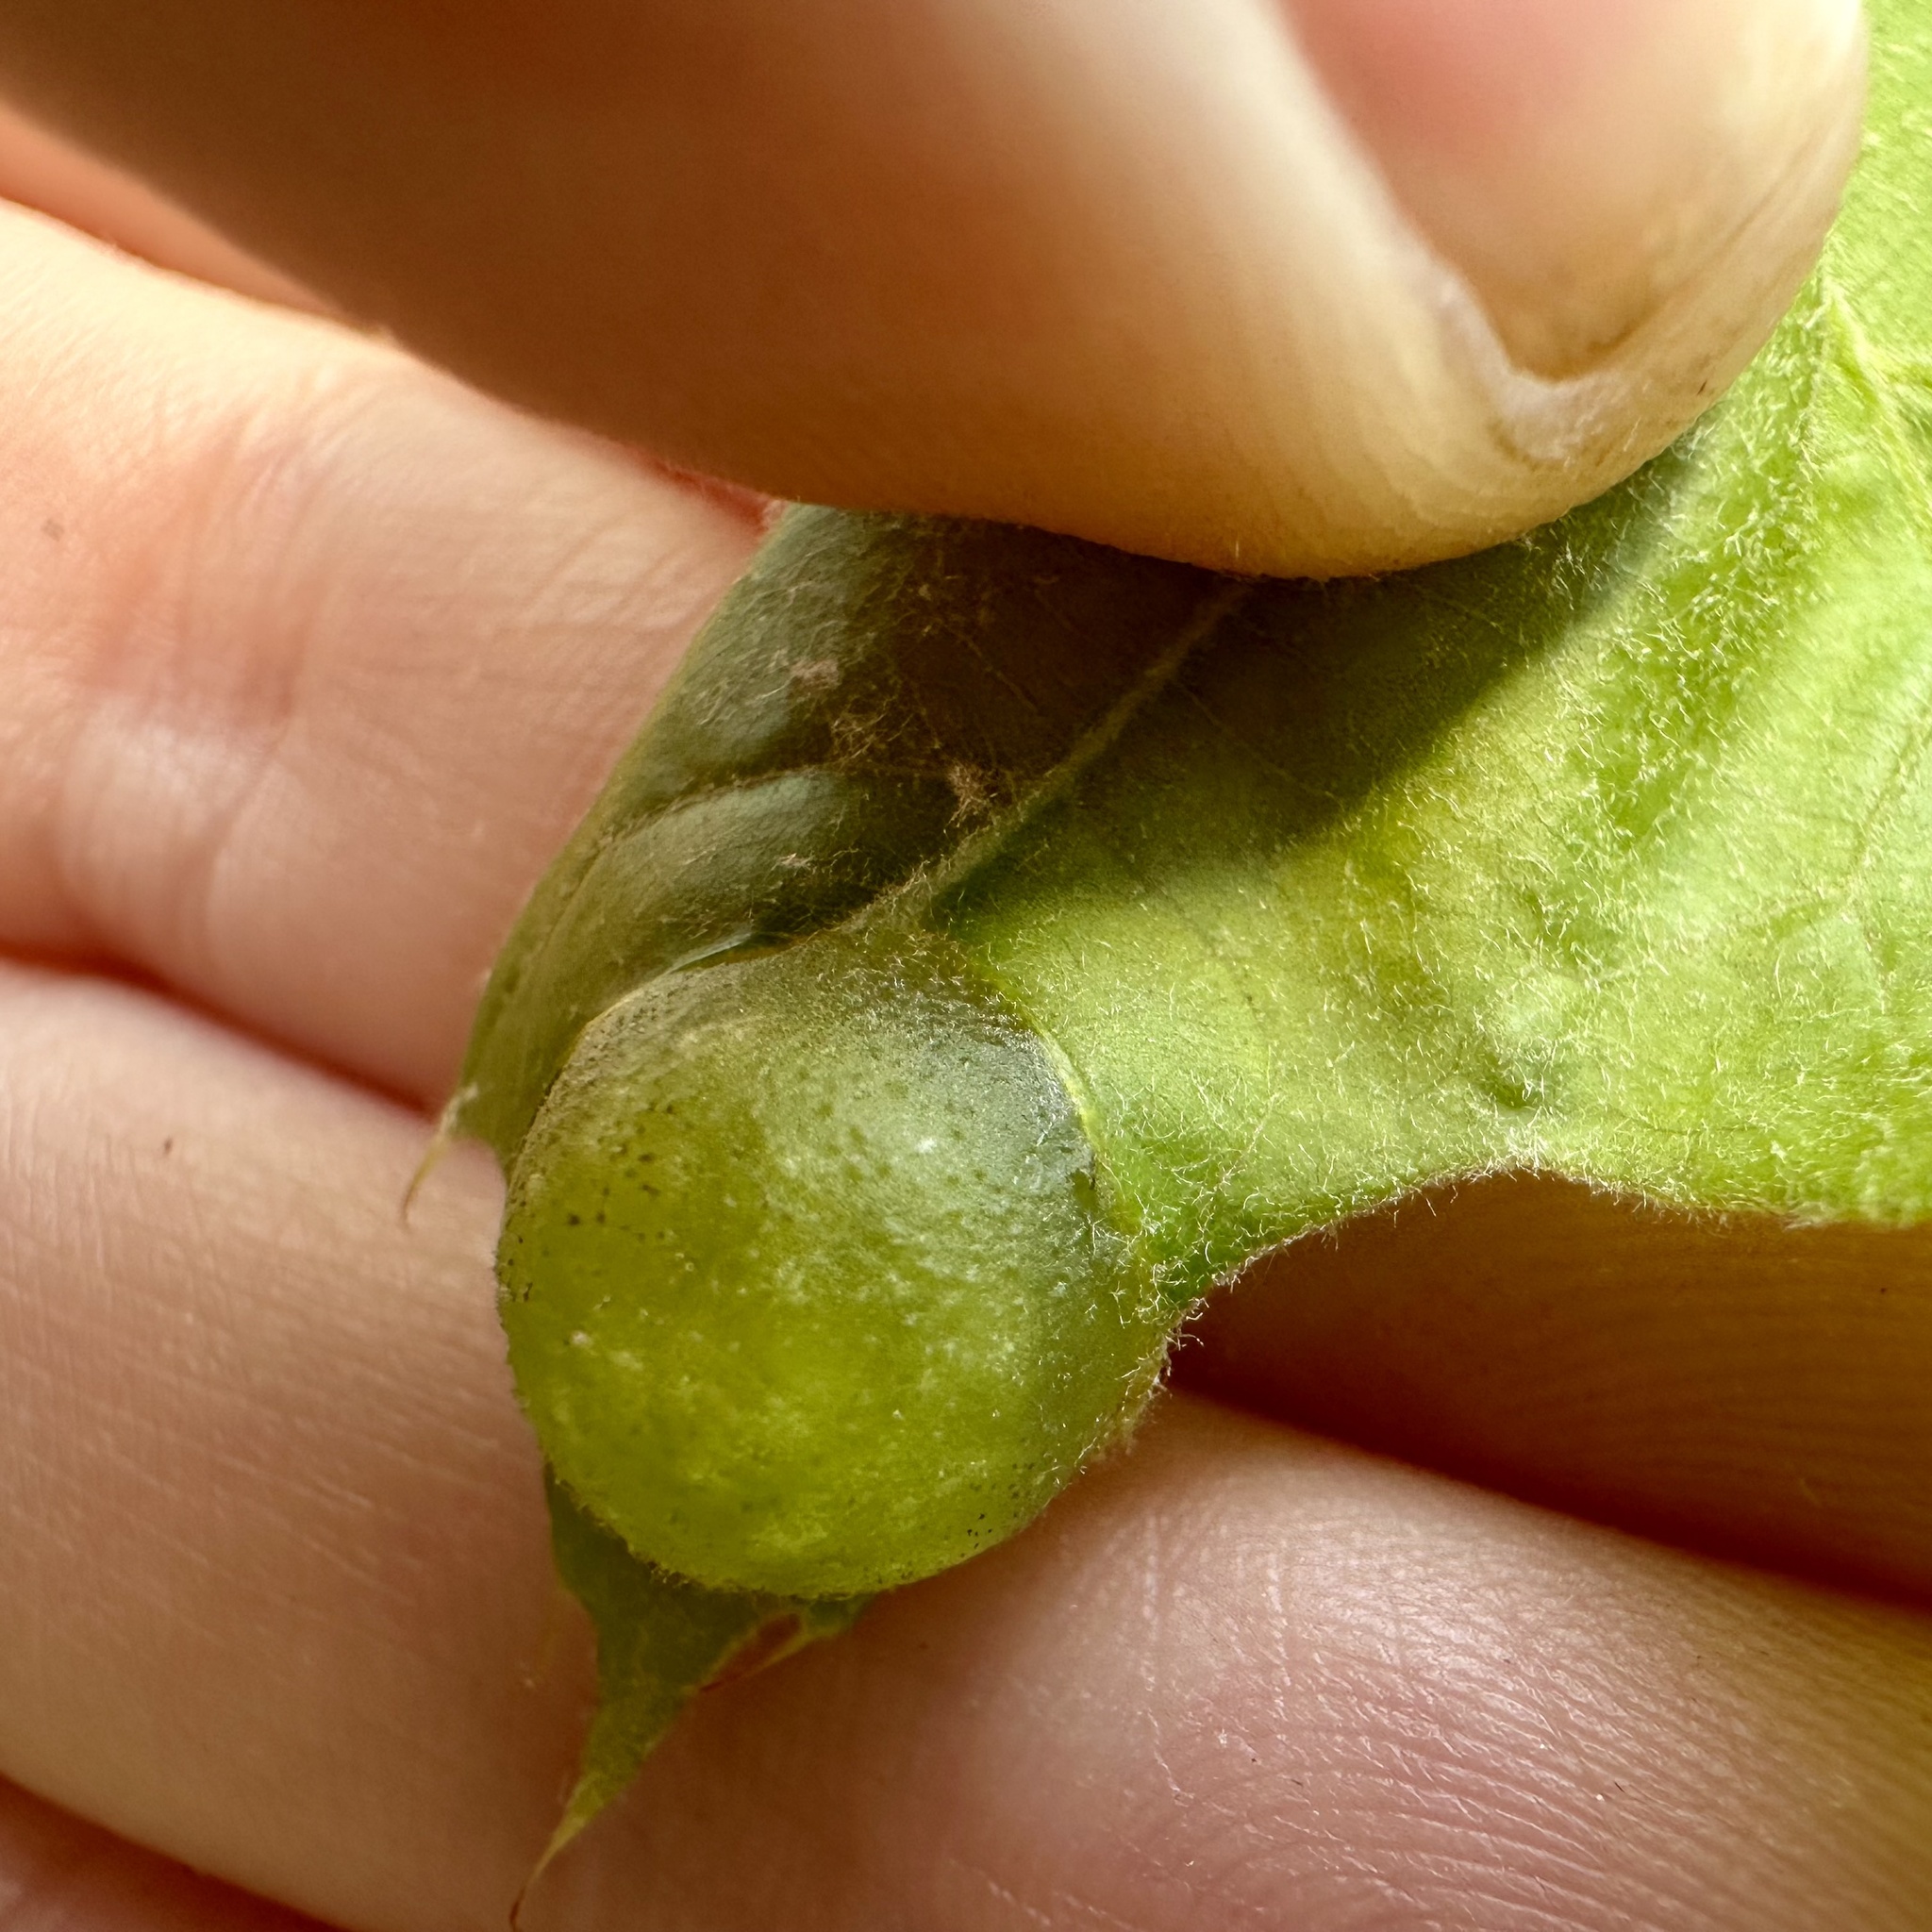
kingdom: Animalia
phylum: Arthropoda
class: Insecta
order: Hymenoptera
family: Cynipidae
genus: Dryocosmus
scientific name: Dryocosmus quercuspalustris
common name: Succulent oak gall wasp
